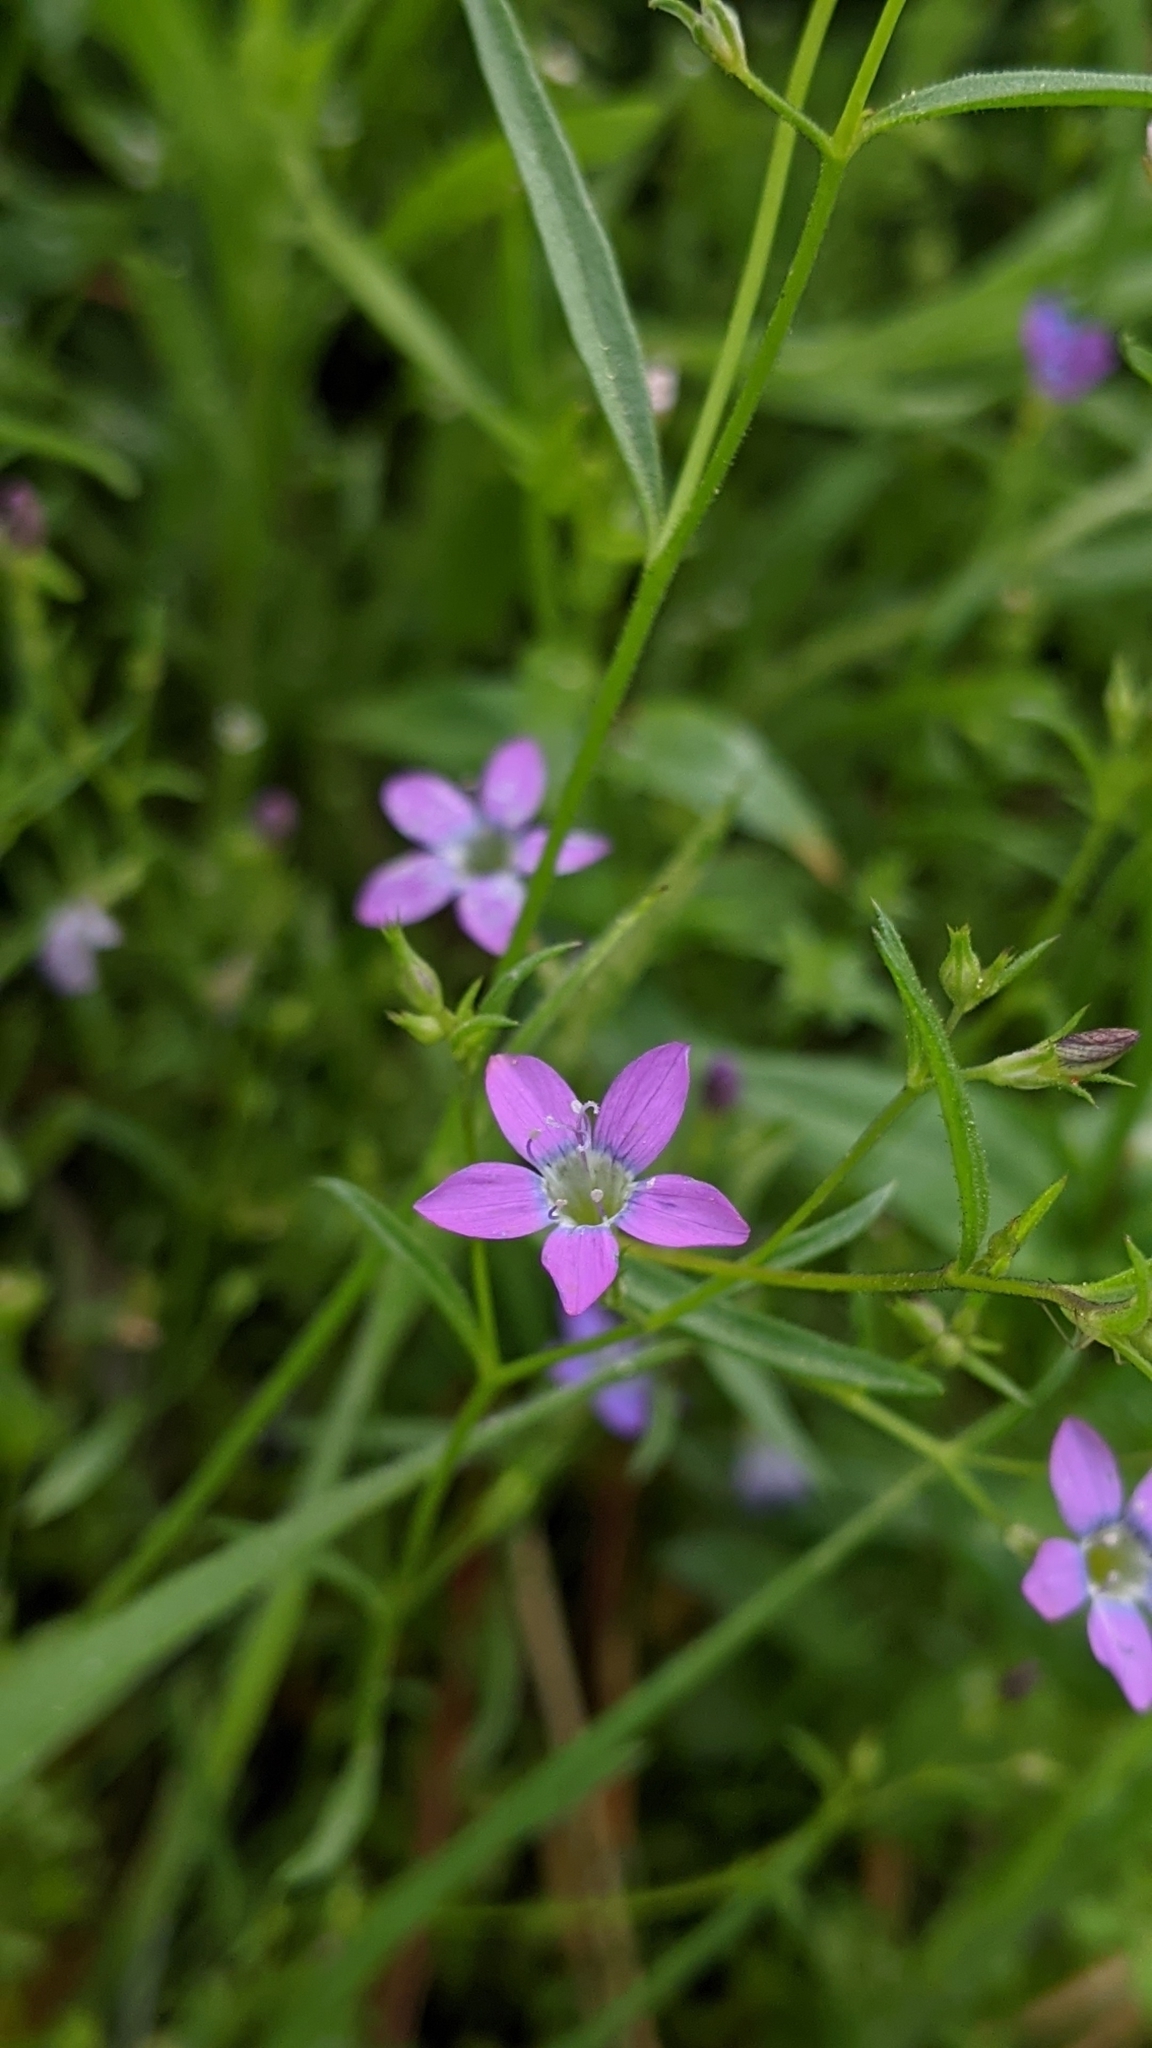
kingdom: Plantae
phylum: Tracheophyta
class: Magnoliopsida
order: Ericales
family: Polemoniaceae
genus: Navarretia
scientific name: Navarretia leptalea
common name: Bridges' pincushionplant
